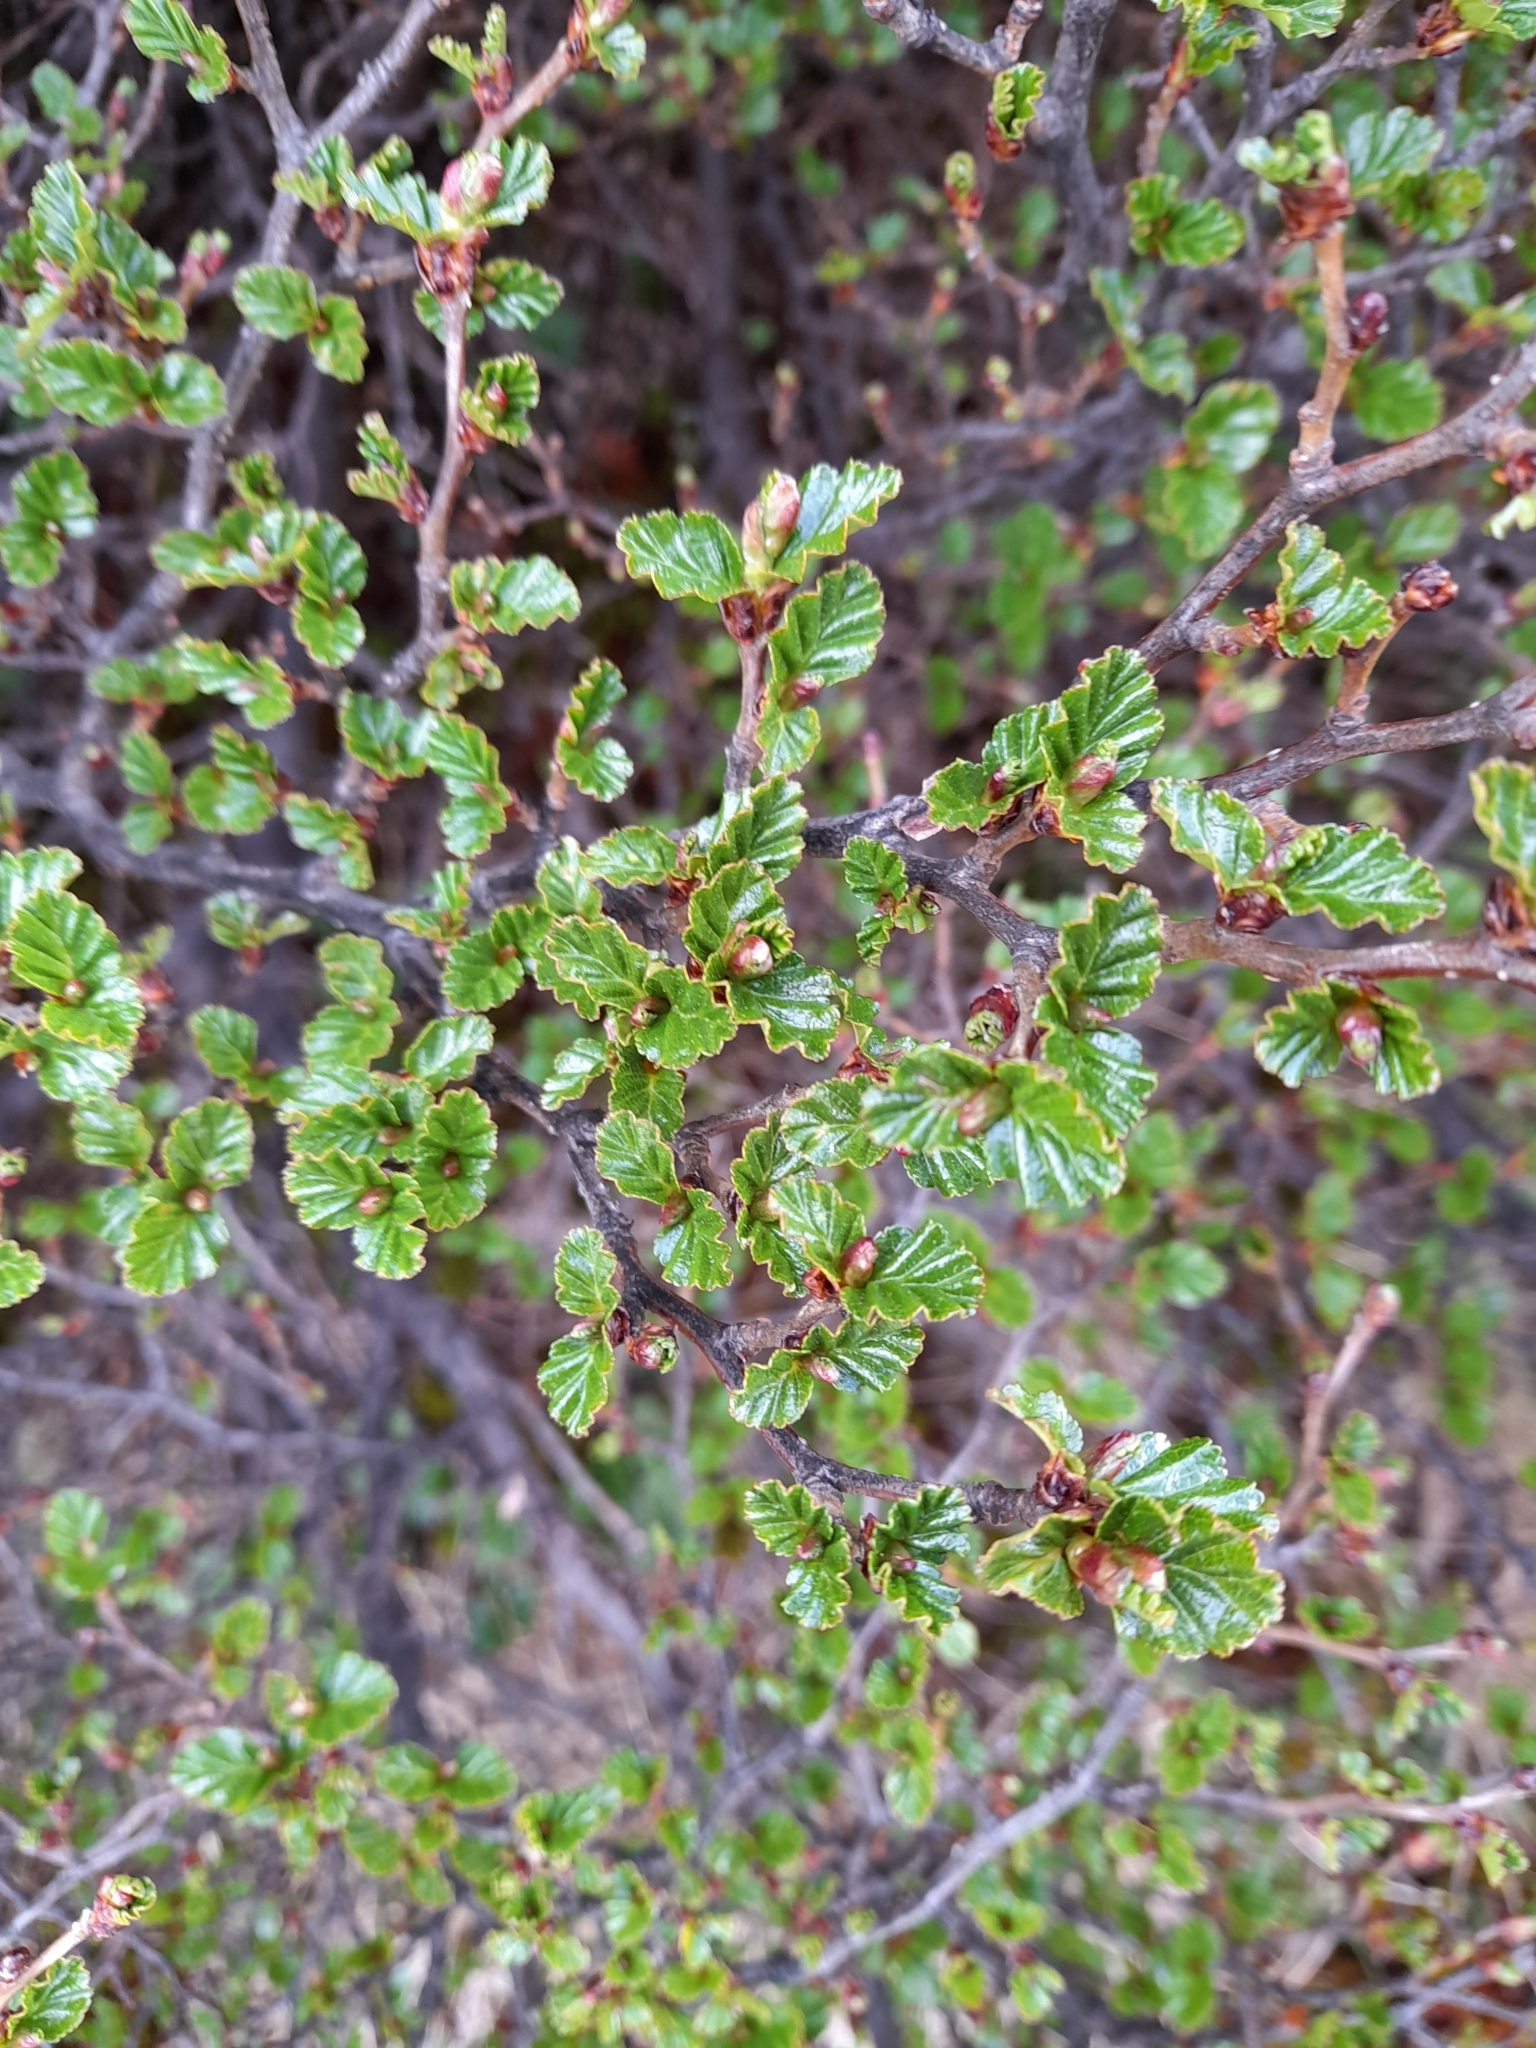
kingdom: Plantae
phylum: Tracheophyta
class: Magnoliopsida
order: Fagales
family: Nothofagaceae
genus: Nothofagus
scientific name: Nothofagus antarctica
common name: Antarctic beech
